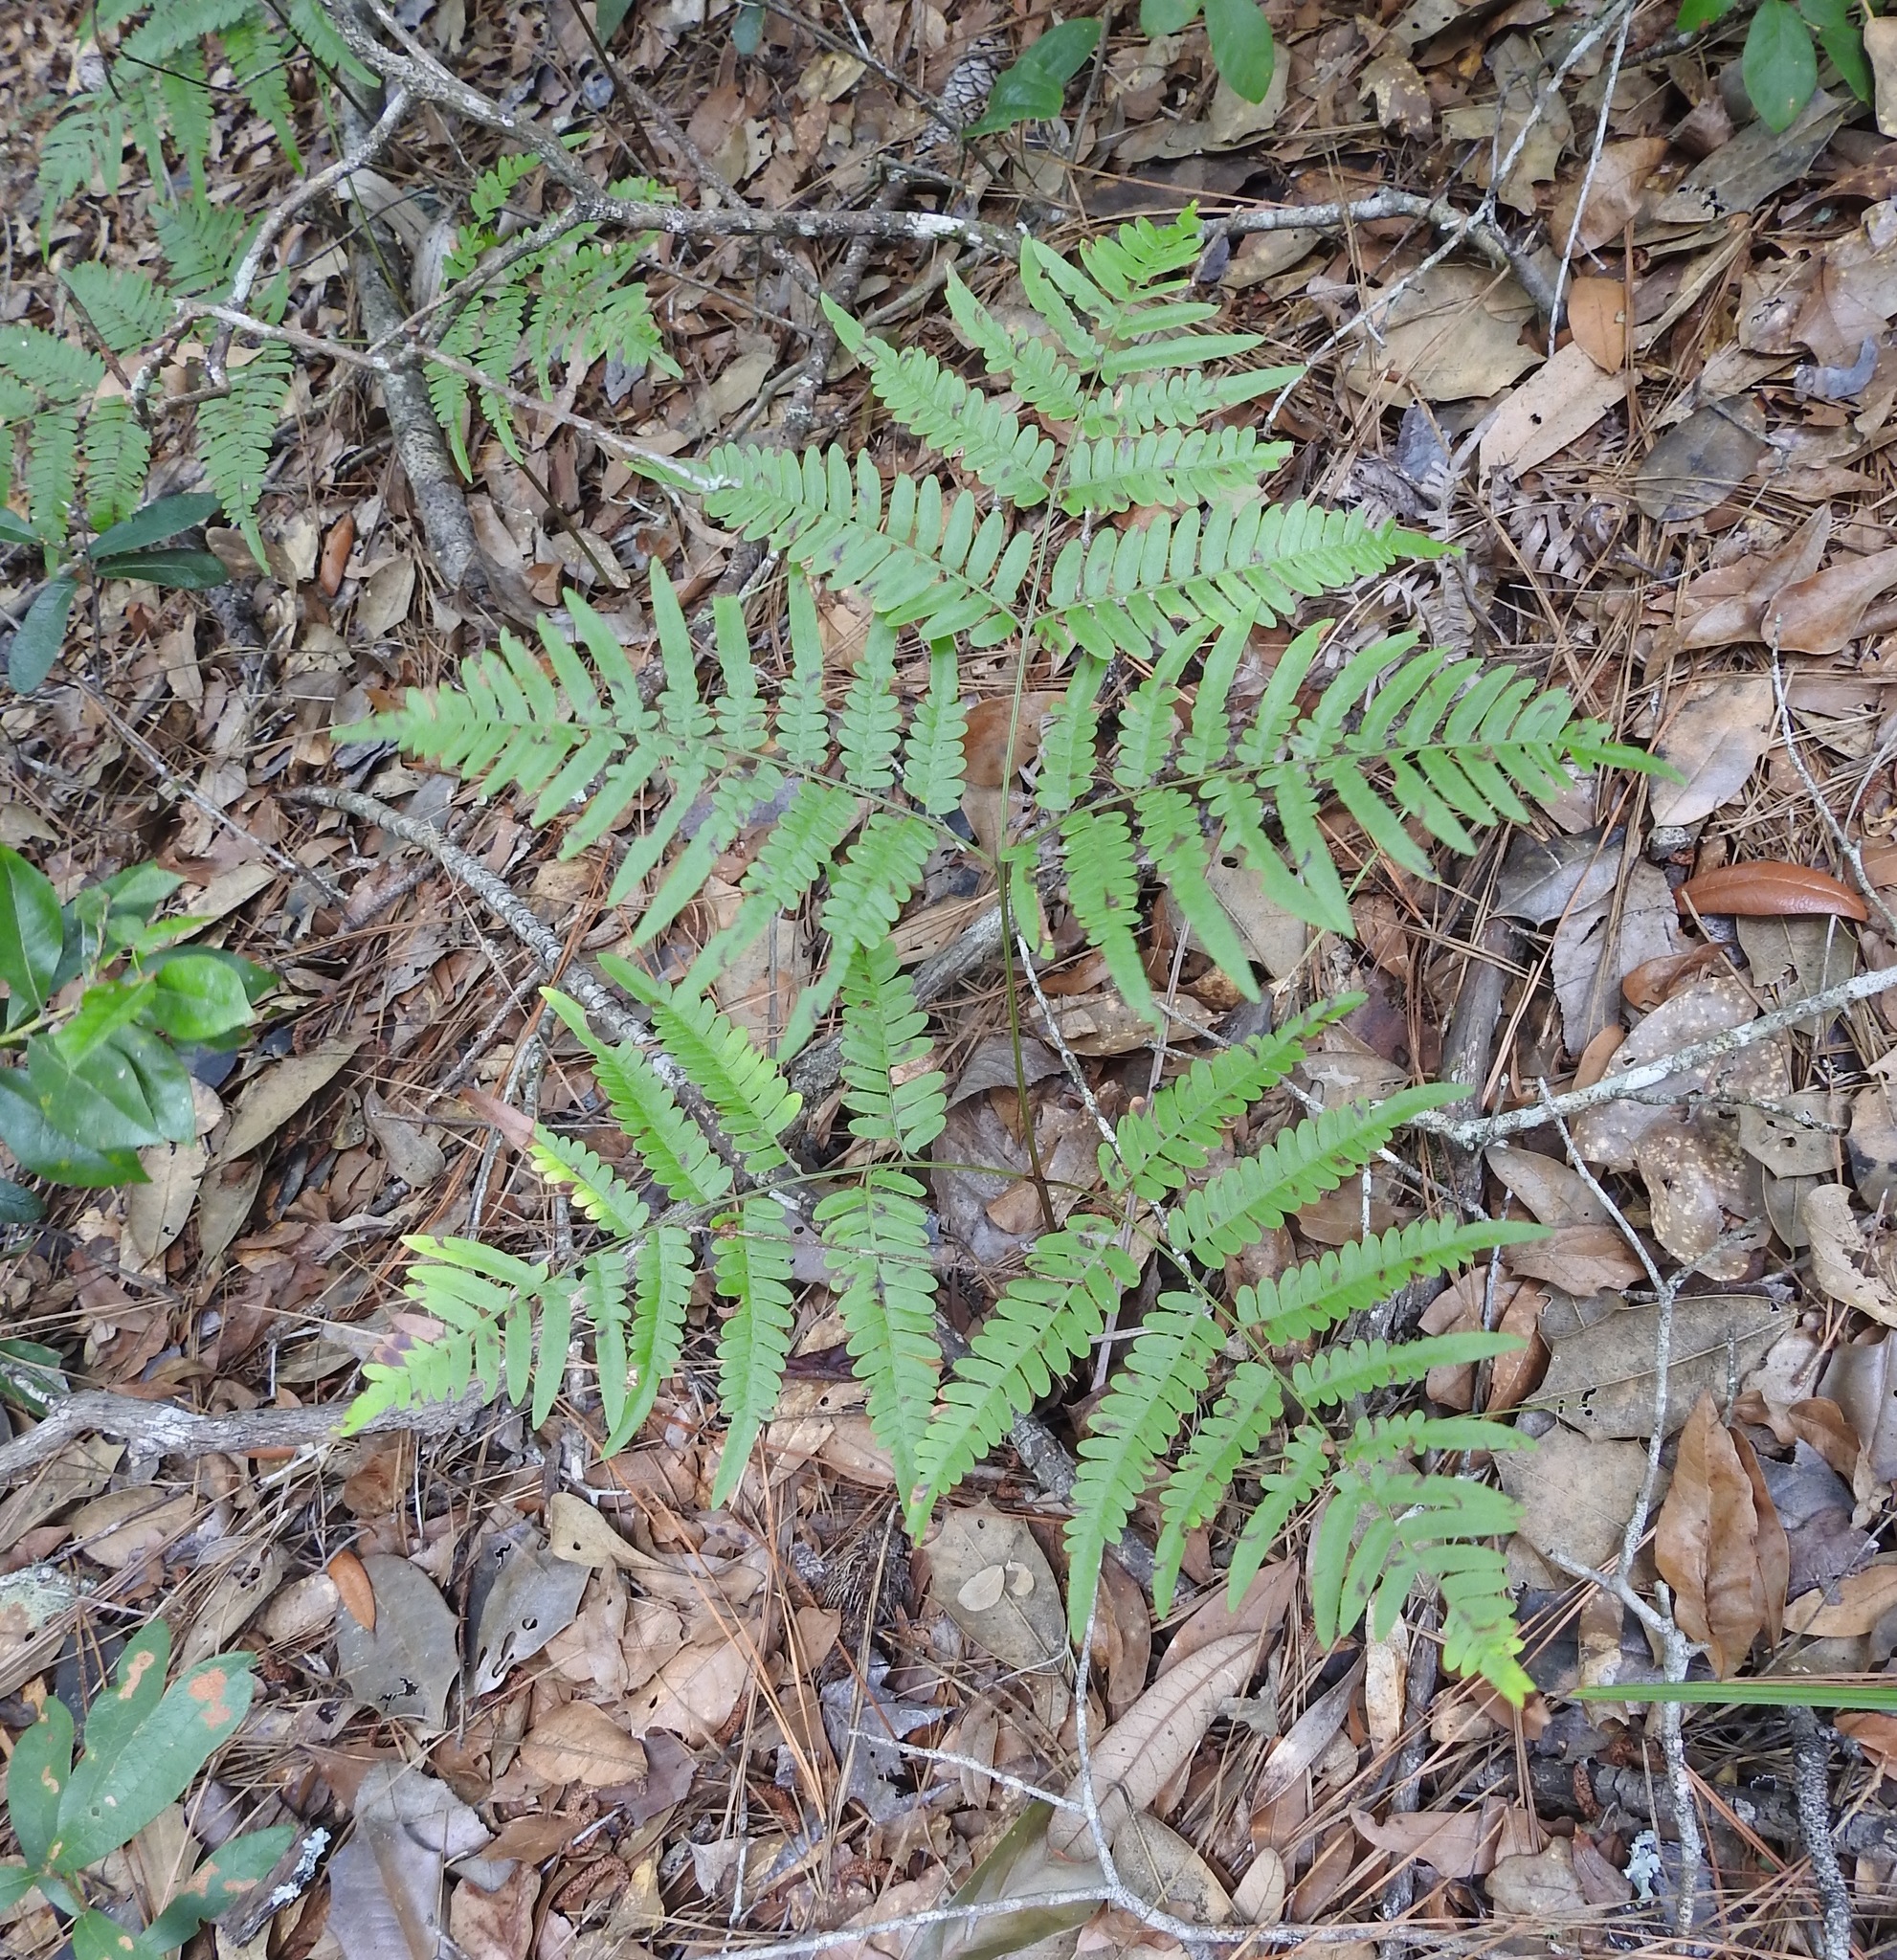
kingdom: Plantae
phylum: Tracheophyta
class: Polypodiopsida
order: Polypodiales
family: Dennstaedtiaceae
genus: Pteridium
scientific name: Pteridium aquilinum
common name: Bracken
